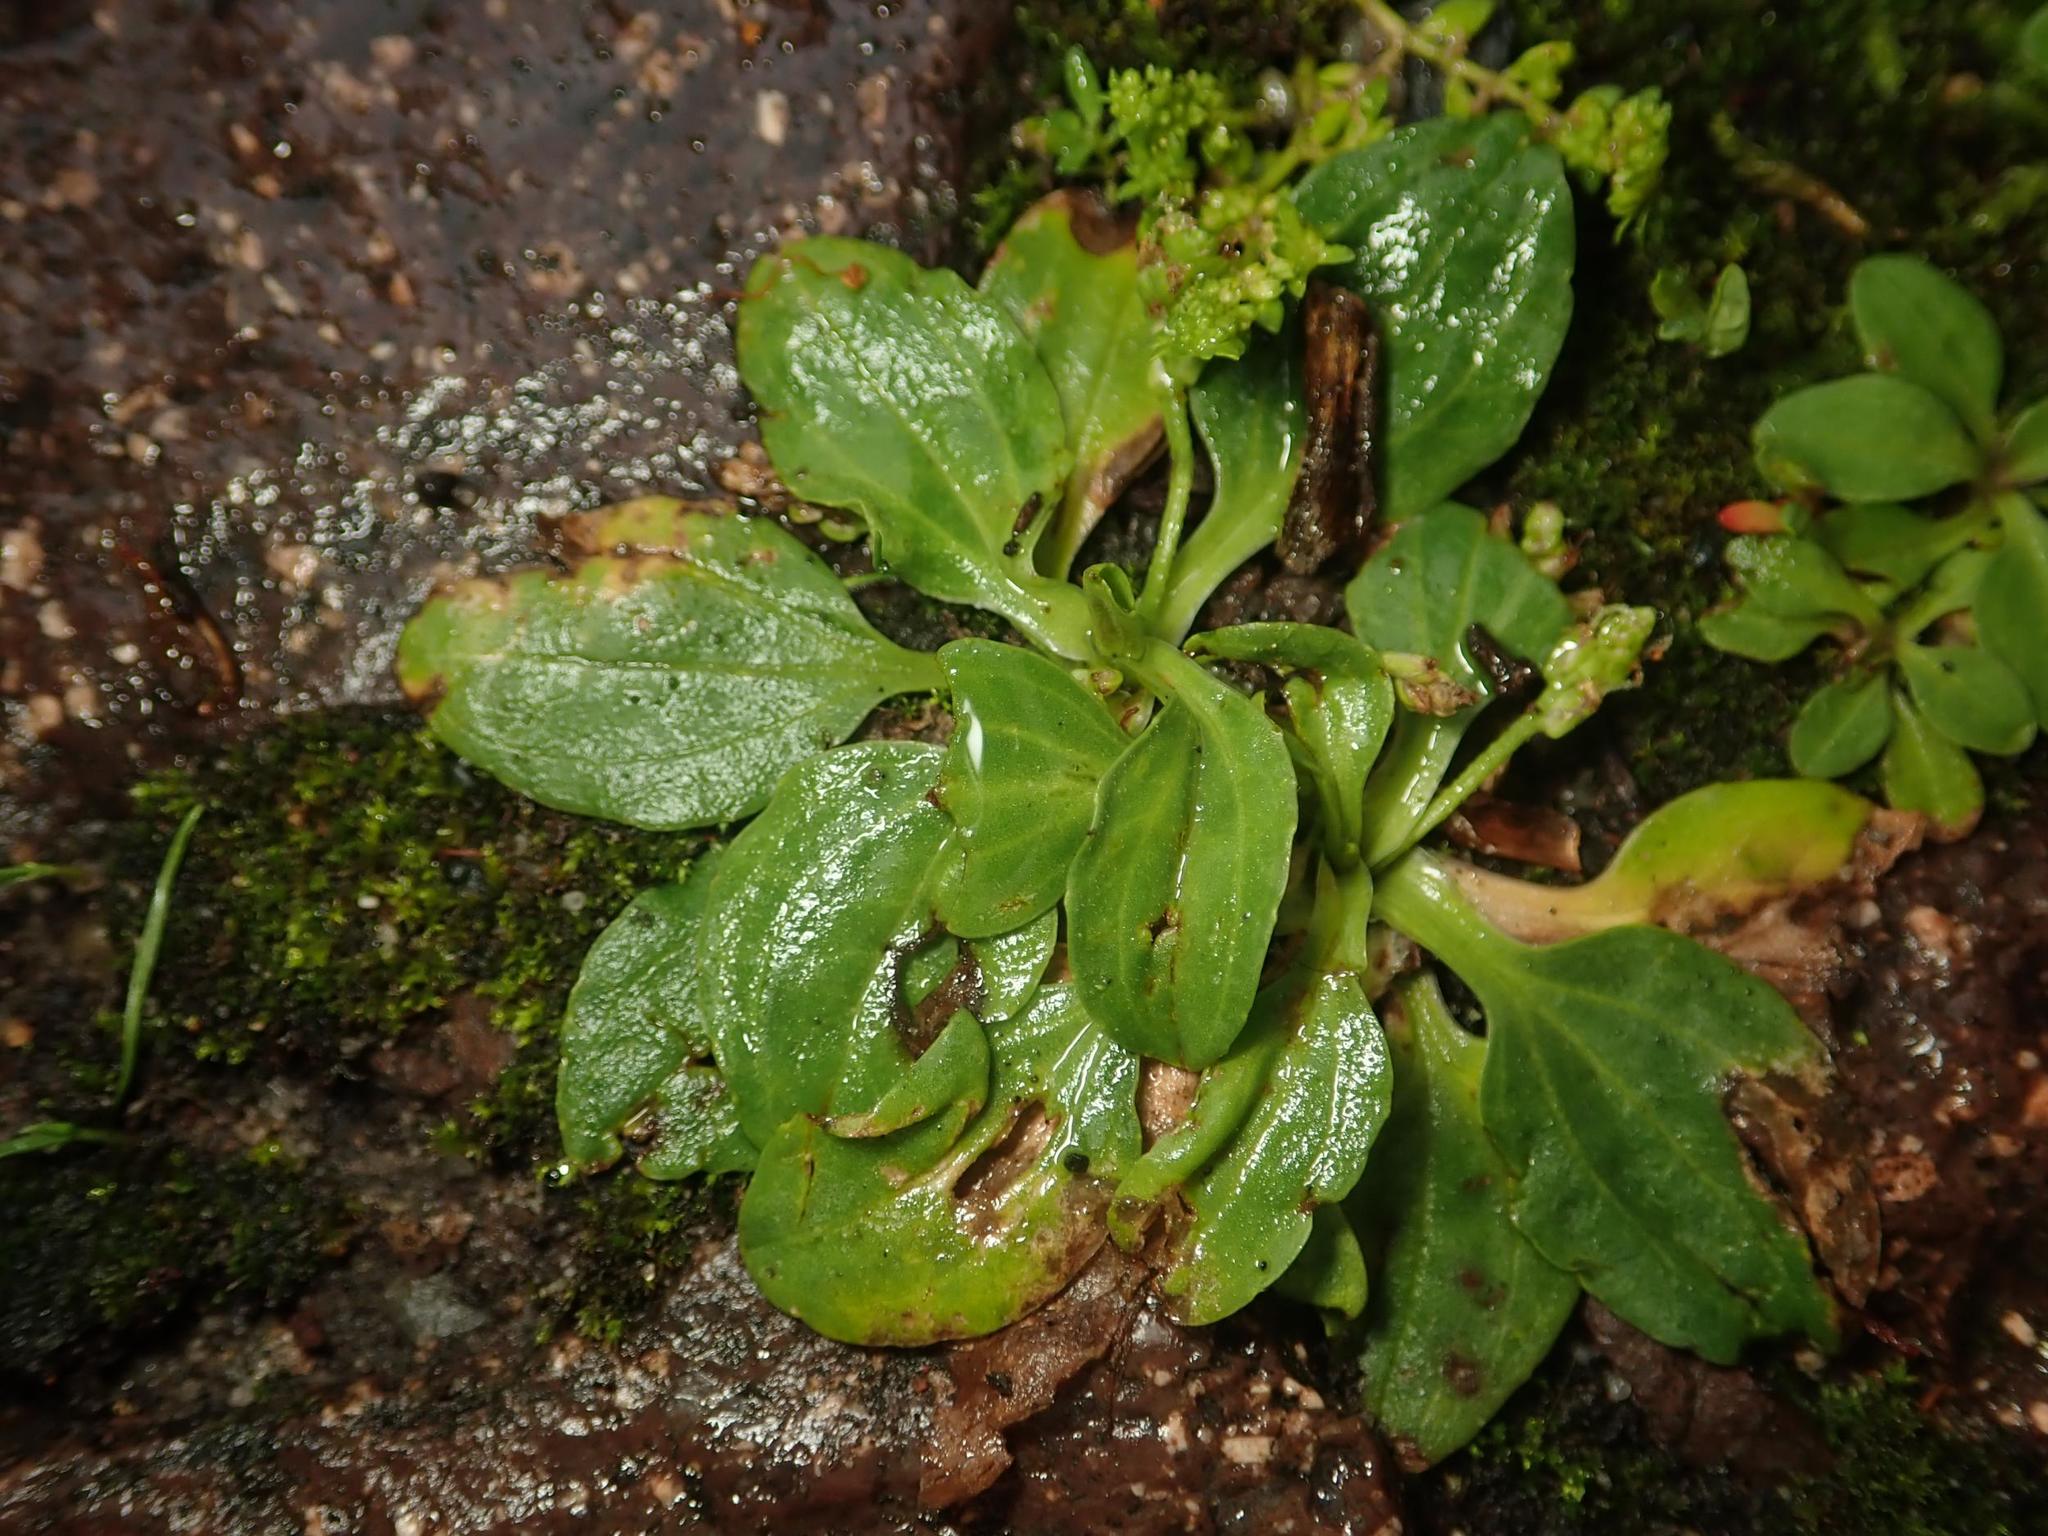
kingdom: Plantae
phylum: Tracheophyta
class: Magnoliopsida
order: Lamiales
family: Plantaginaceae
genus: Plantago
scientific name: Plantago major
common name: Common plantain
